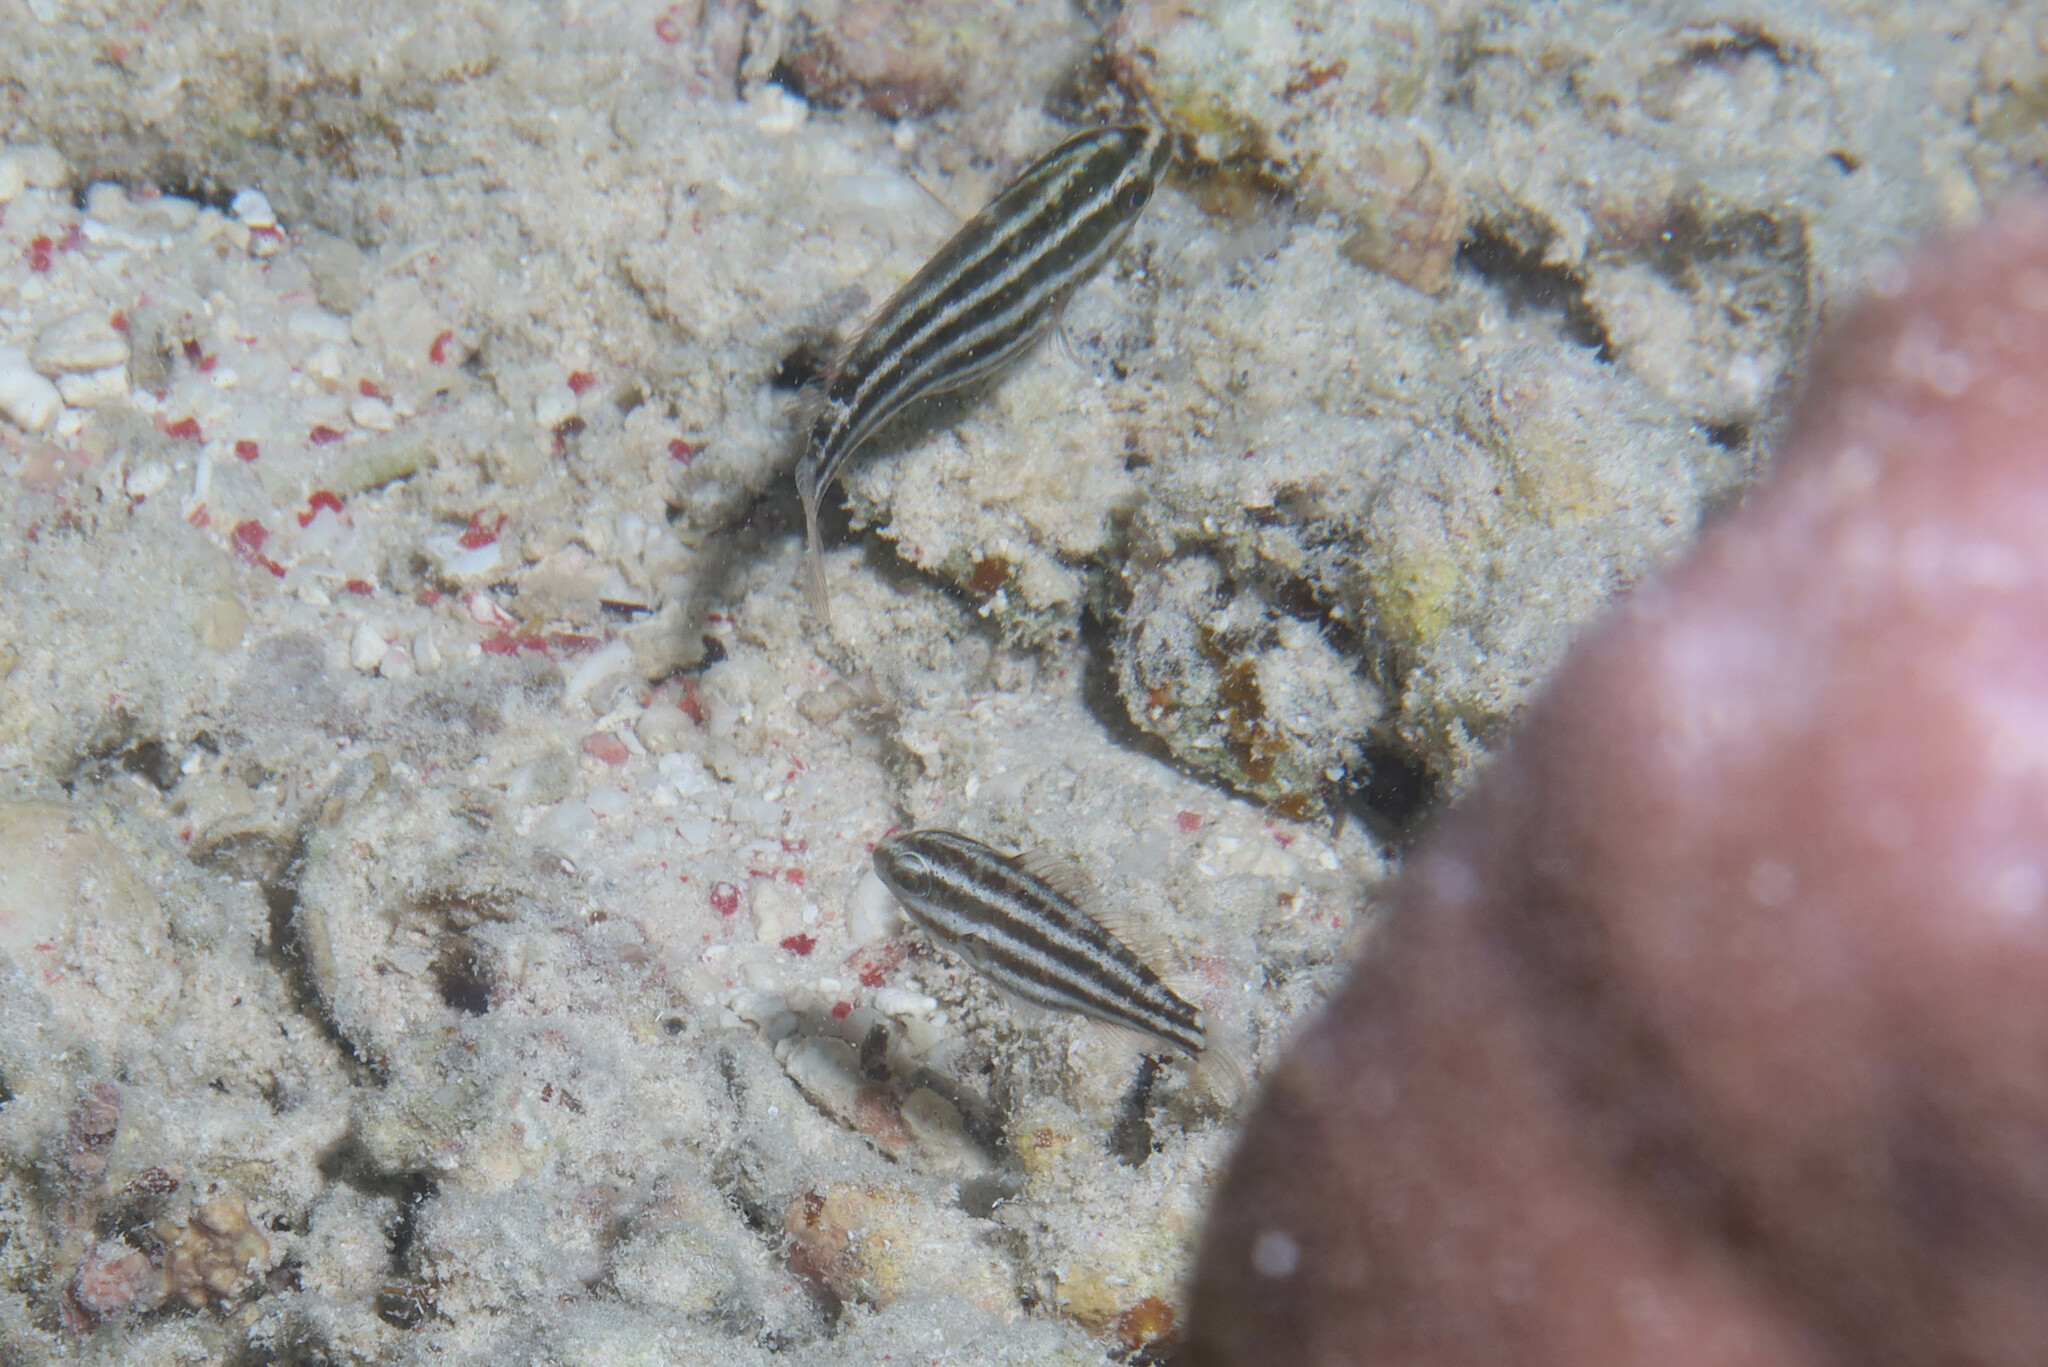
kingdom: Animalia
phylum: Chordata
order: Perciformes
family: Scaridae
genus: Chlorurus
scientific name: Chlorurus sordidus
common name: Bullethead parrotfish
